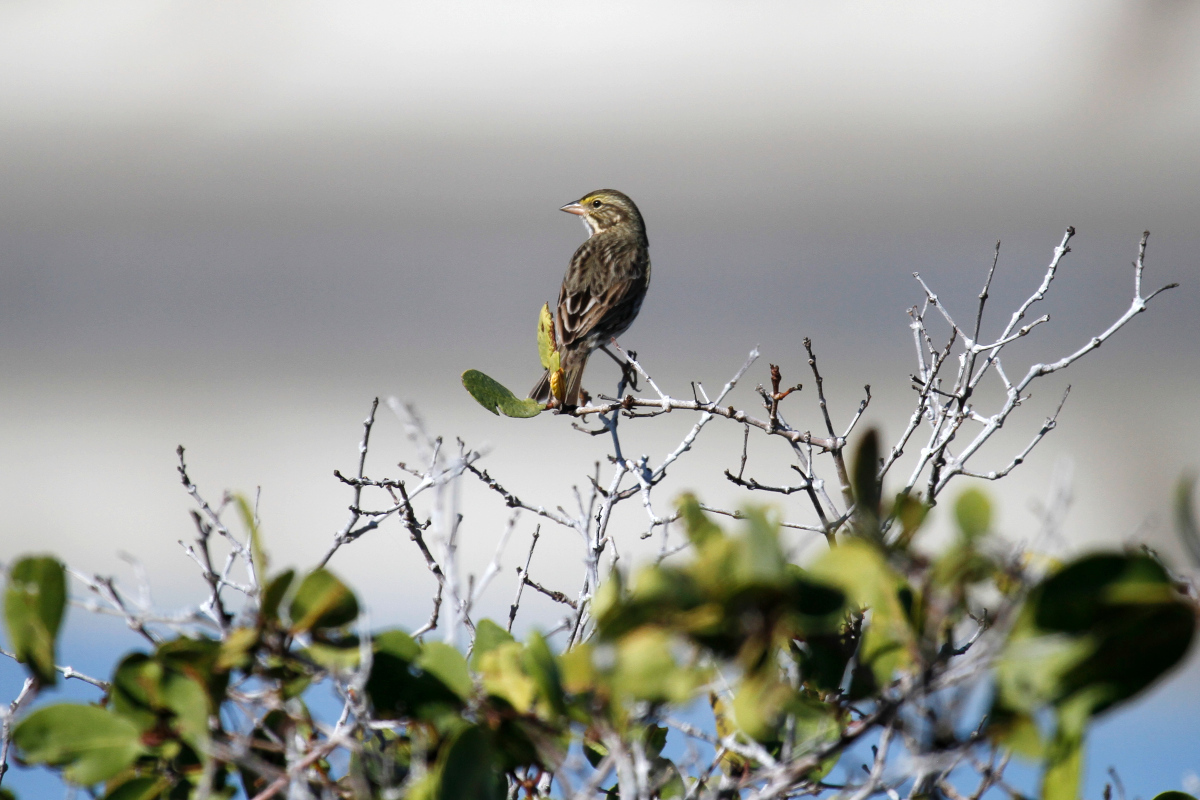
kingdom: Animalia
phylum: Chordata
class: Aves
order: Passeriformes
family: Passerellidae
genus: Passerculus
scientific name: Passerculus sandwichensis
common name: Savannah sparrow
